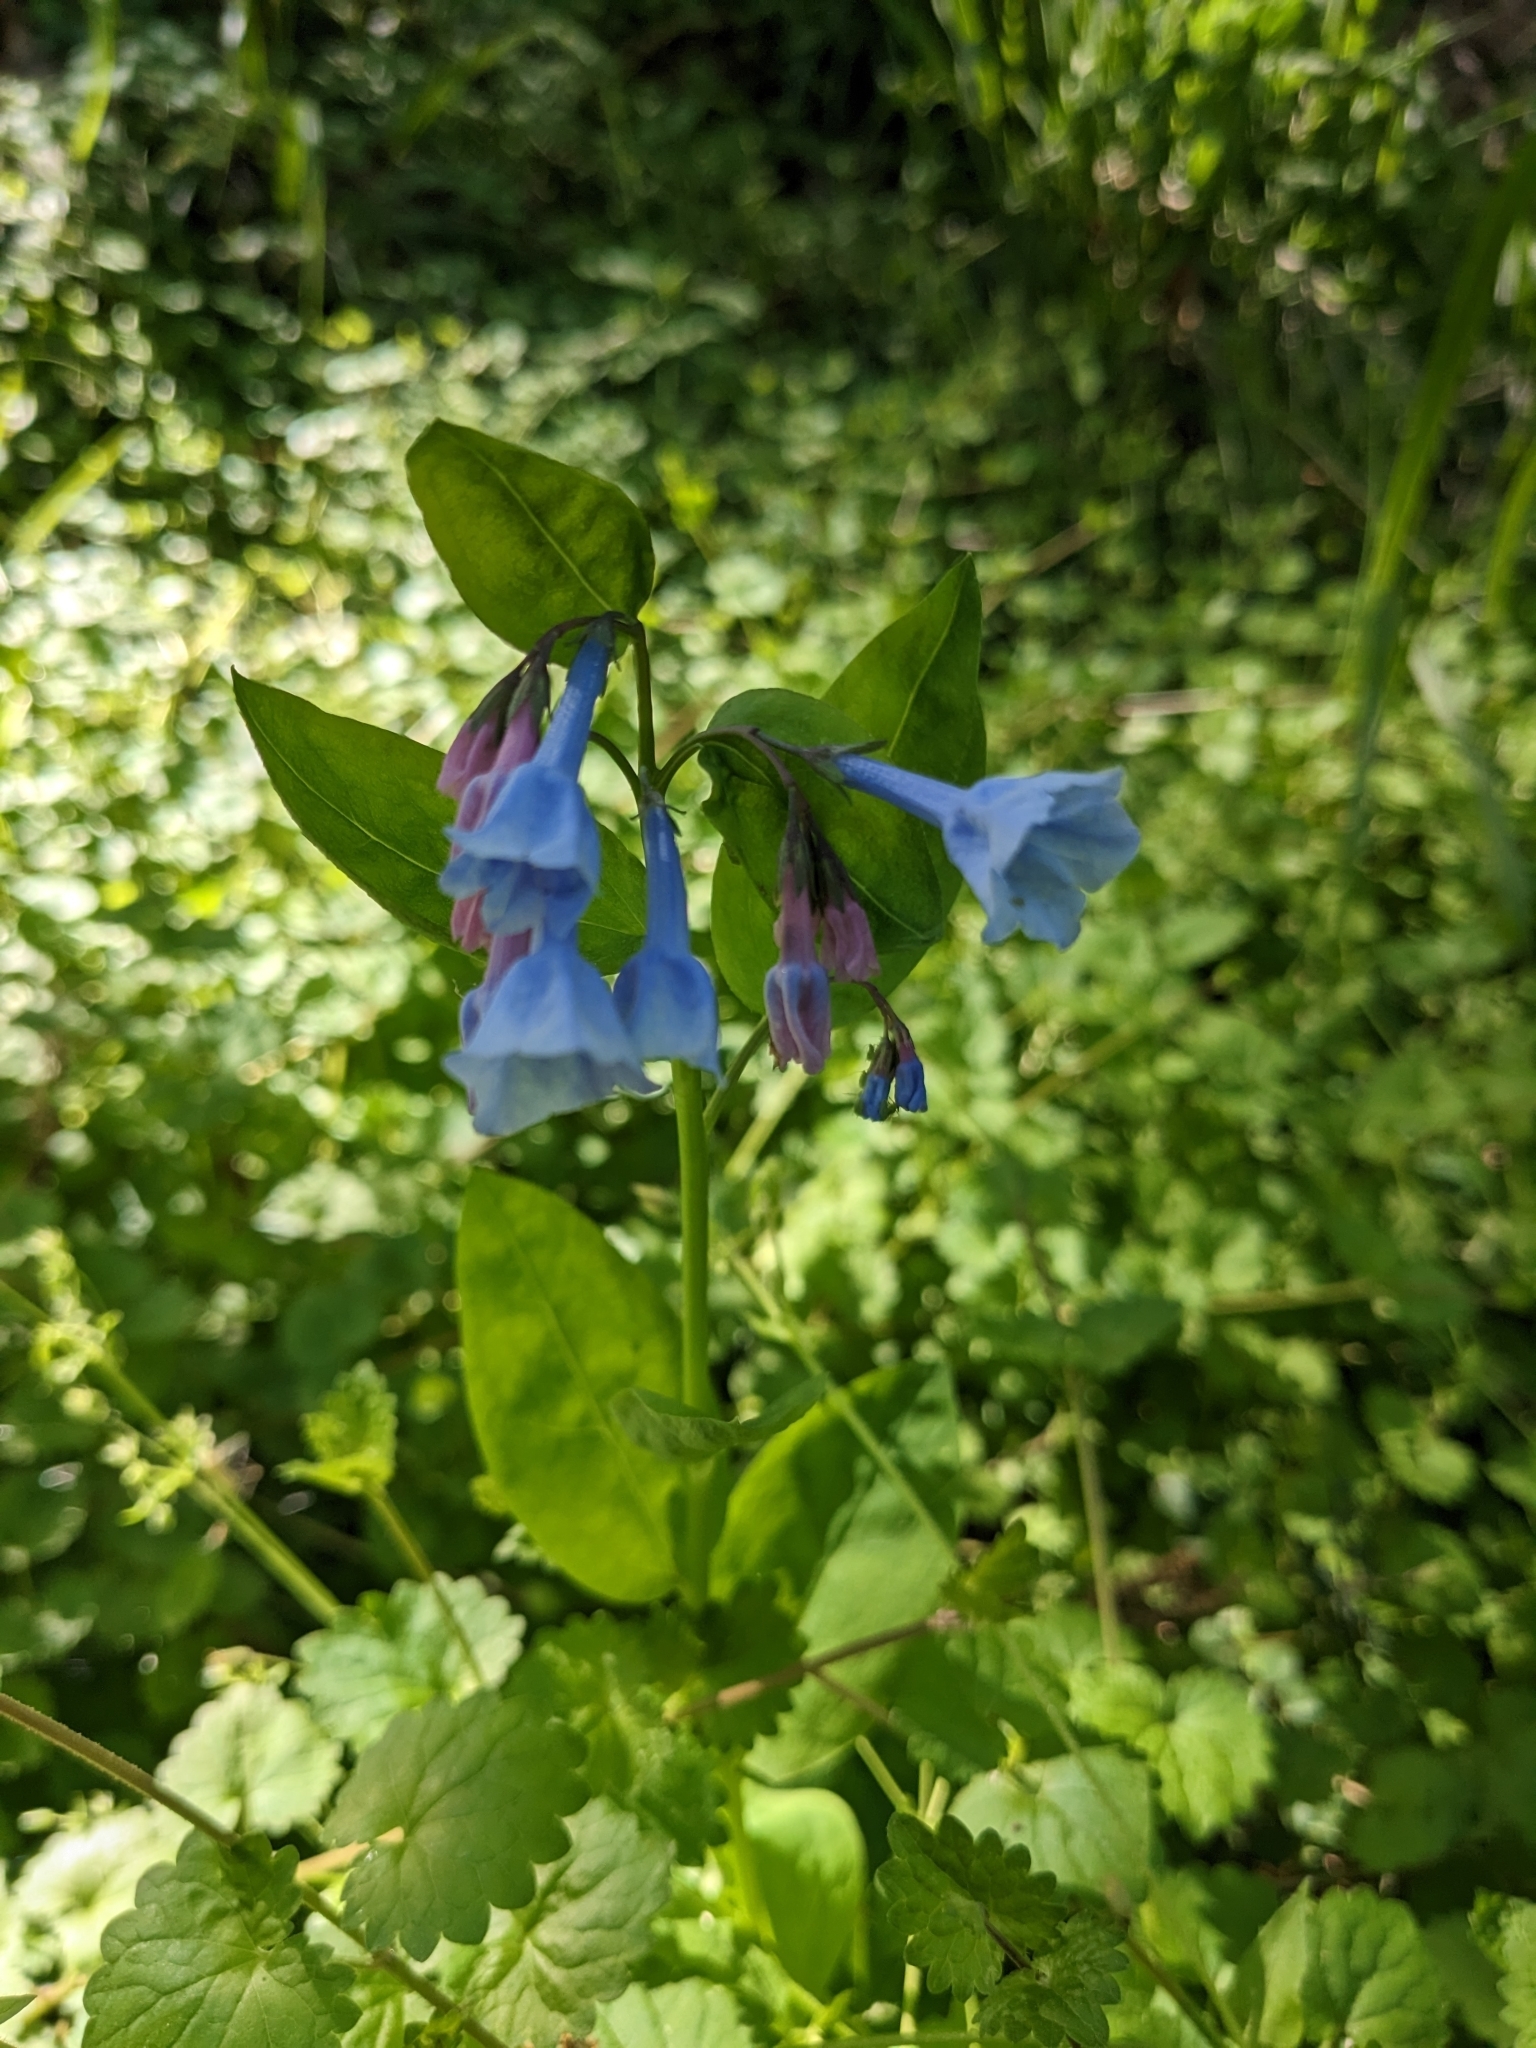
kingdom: Plantae
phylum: Tracheophyta
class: Magnoliopsida
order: Boraginales
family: Boraginaceae
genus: Mertensia
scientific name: Mertensia virginica
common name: Virginia bluebells
